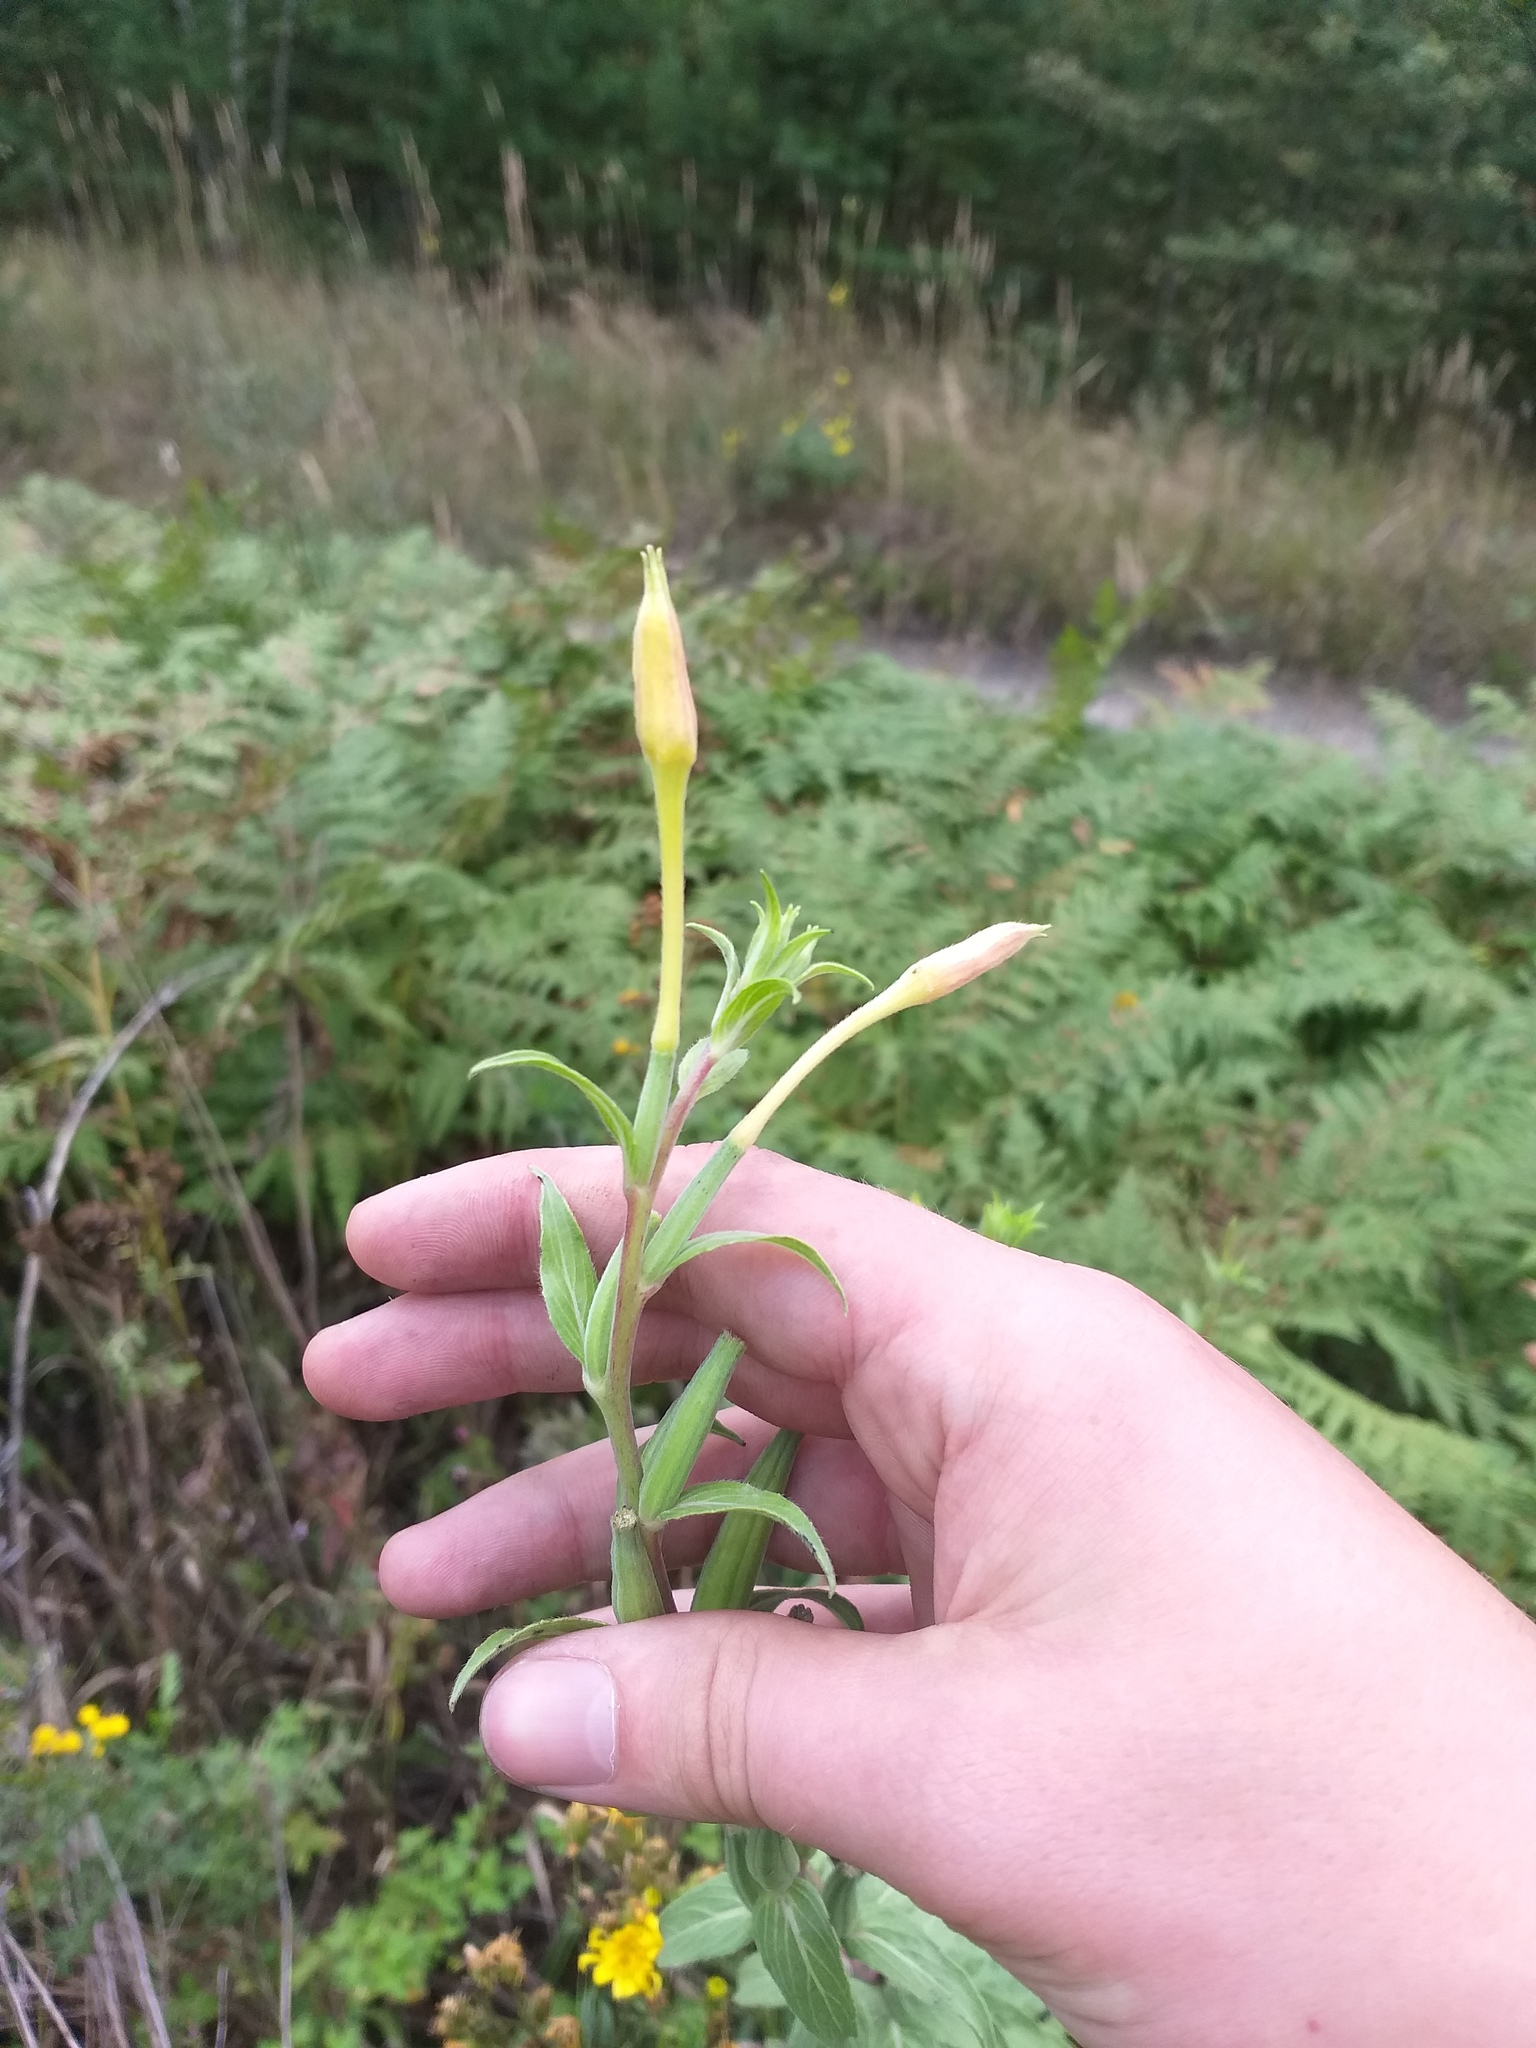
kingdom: Plantae
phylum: Tracheophyta
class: Magnoliopsida
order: Myrtales
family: Onagraceae
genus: Oenothera
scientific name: Oenothera villosa
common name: Hairy evening-primrose
